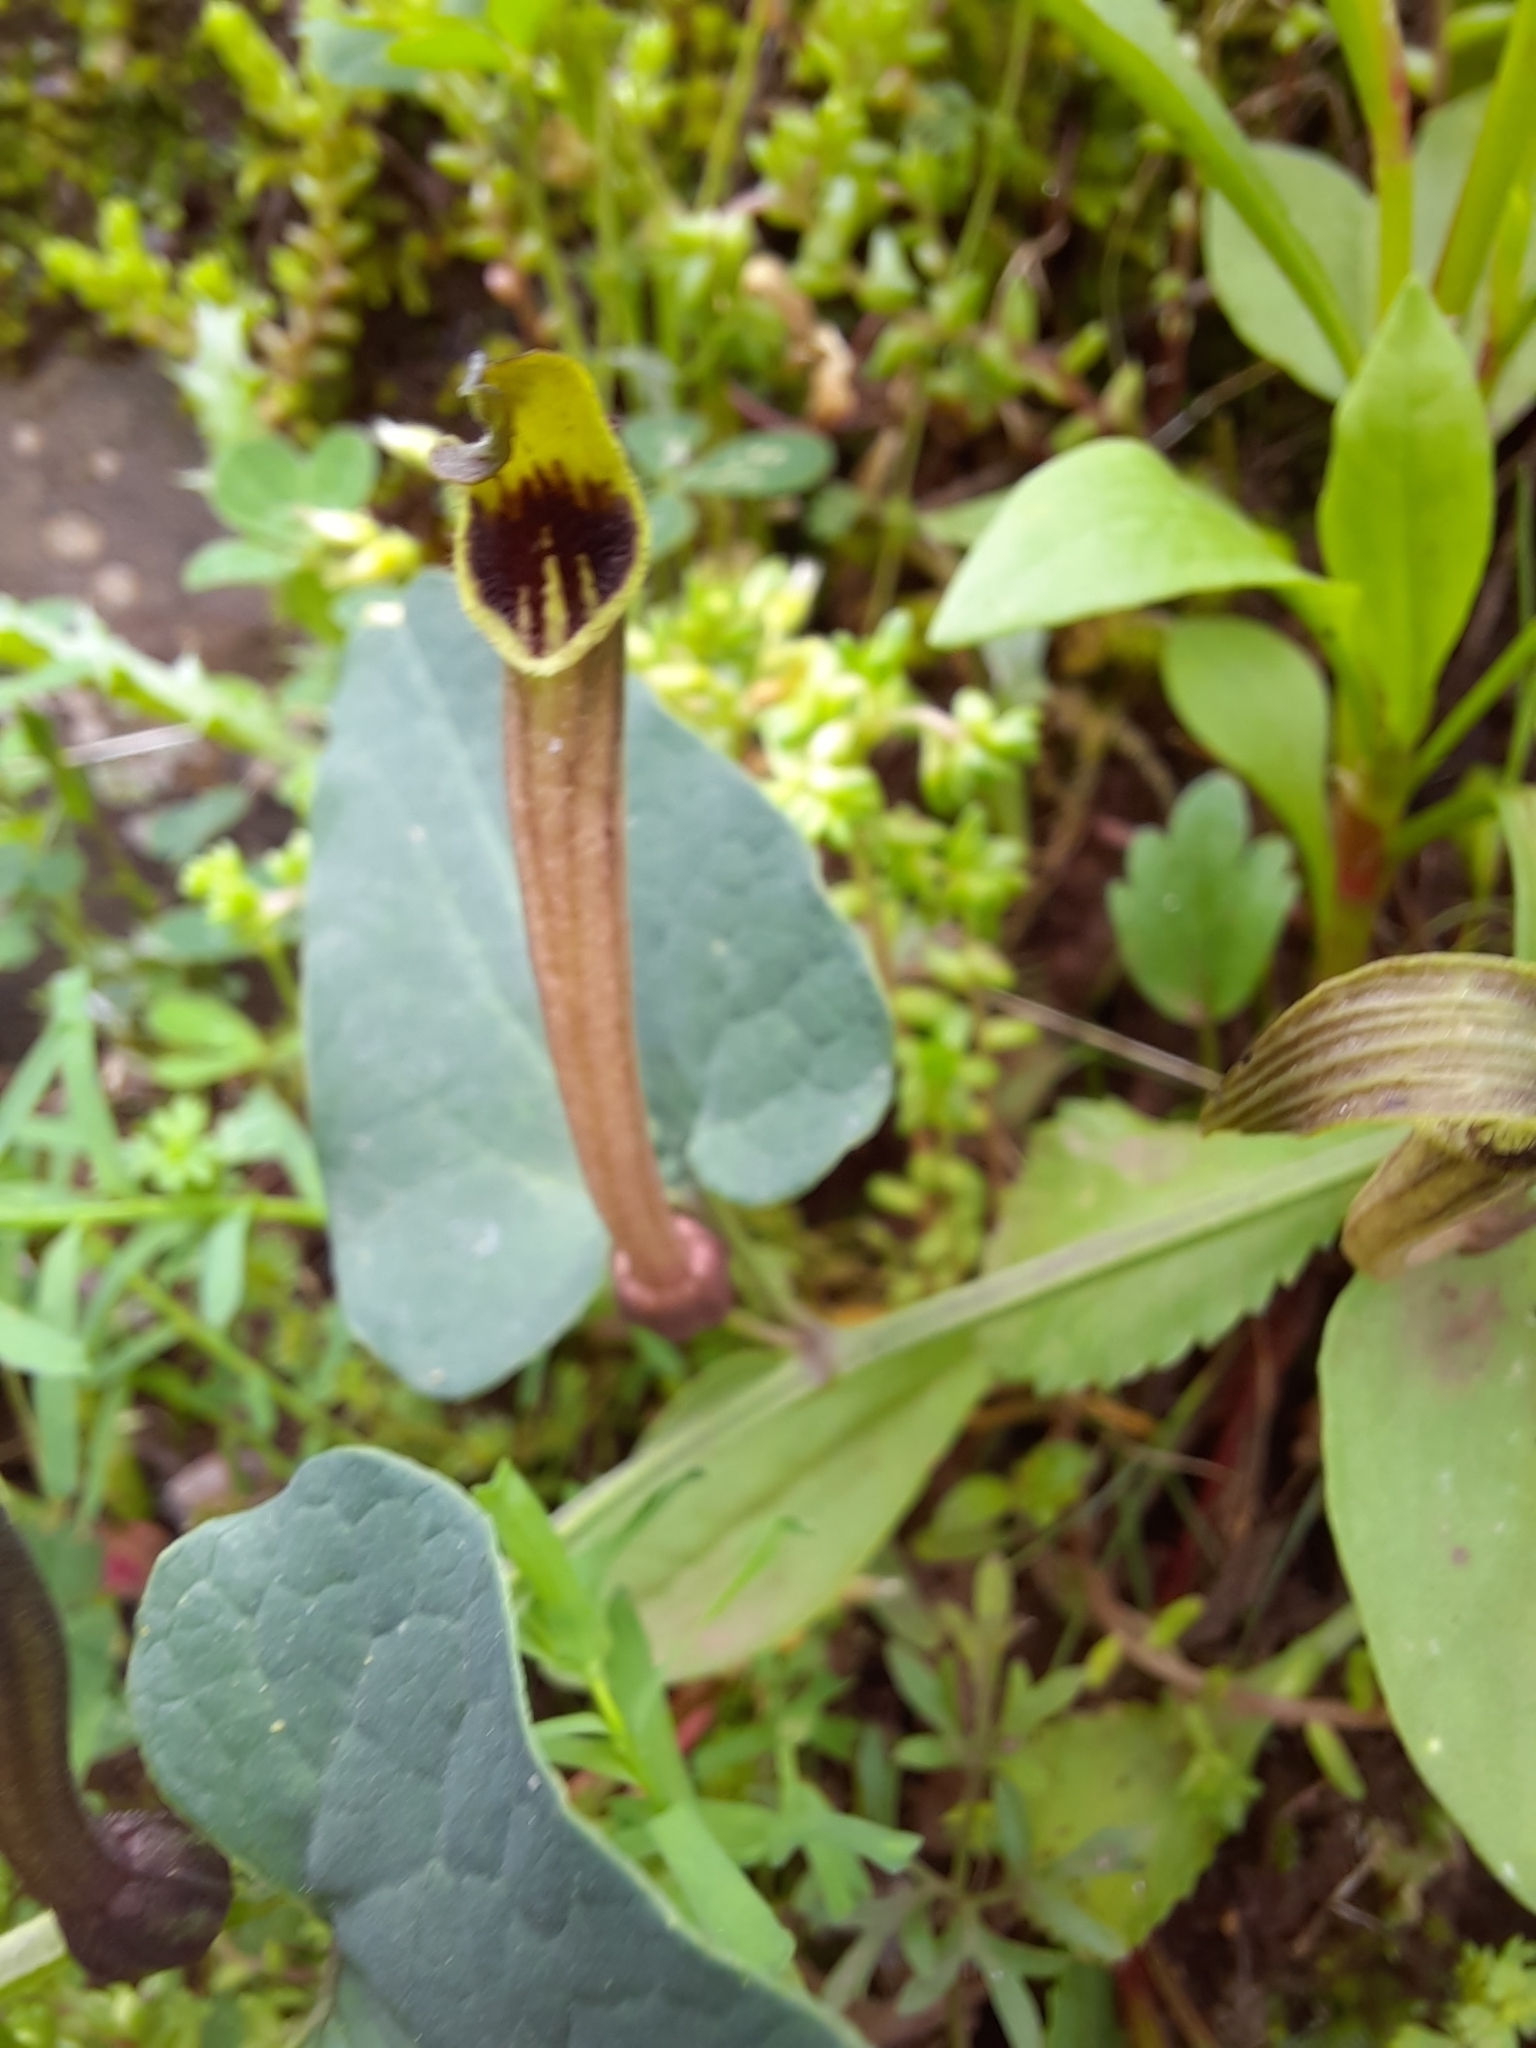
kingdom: Plantae
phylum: Tracheophyta
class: Magnoliopsida
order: Piperales
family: Aristolochiaceae
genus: Aristolochia
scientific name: Aristolochia paucinervis
